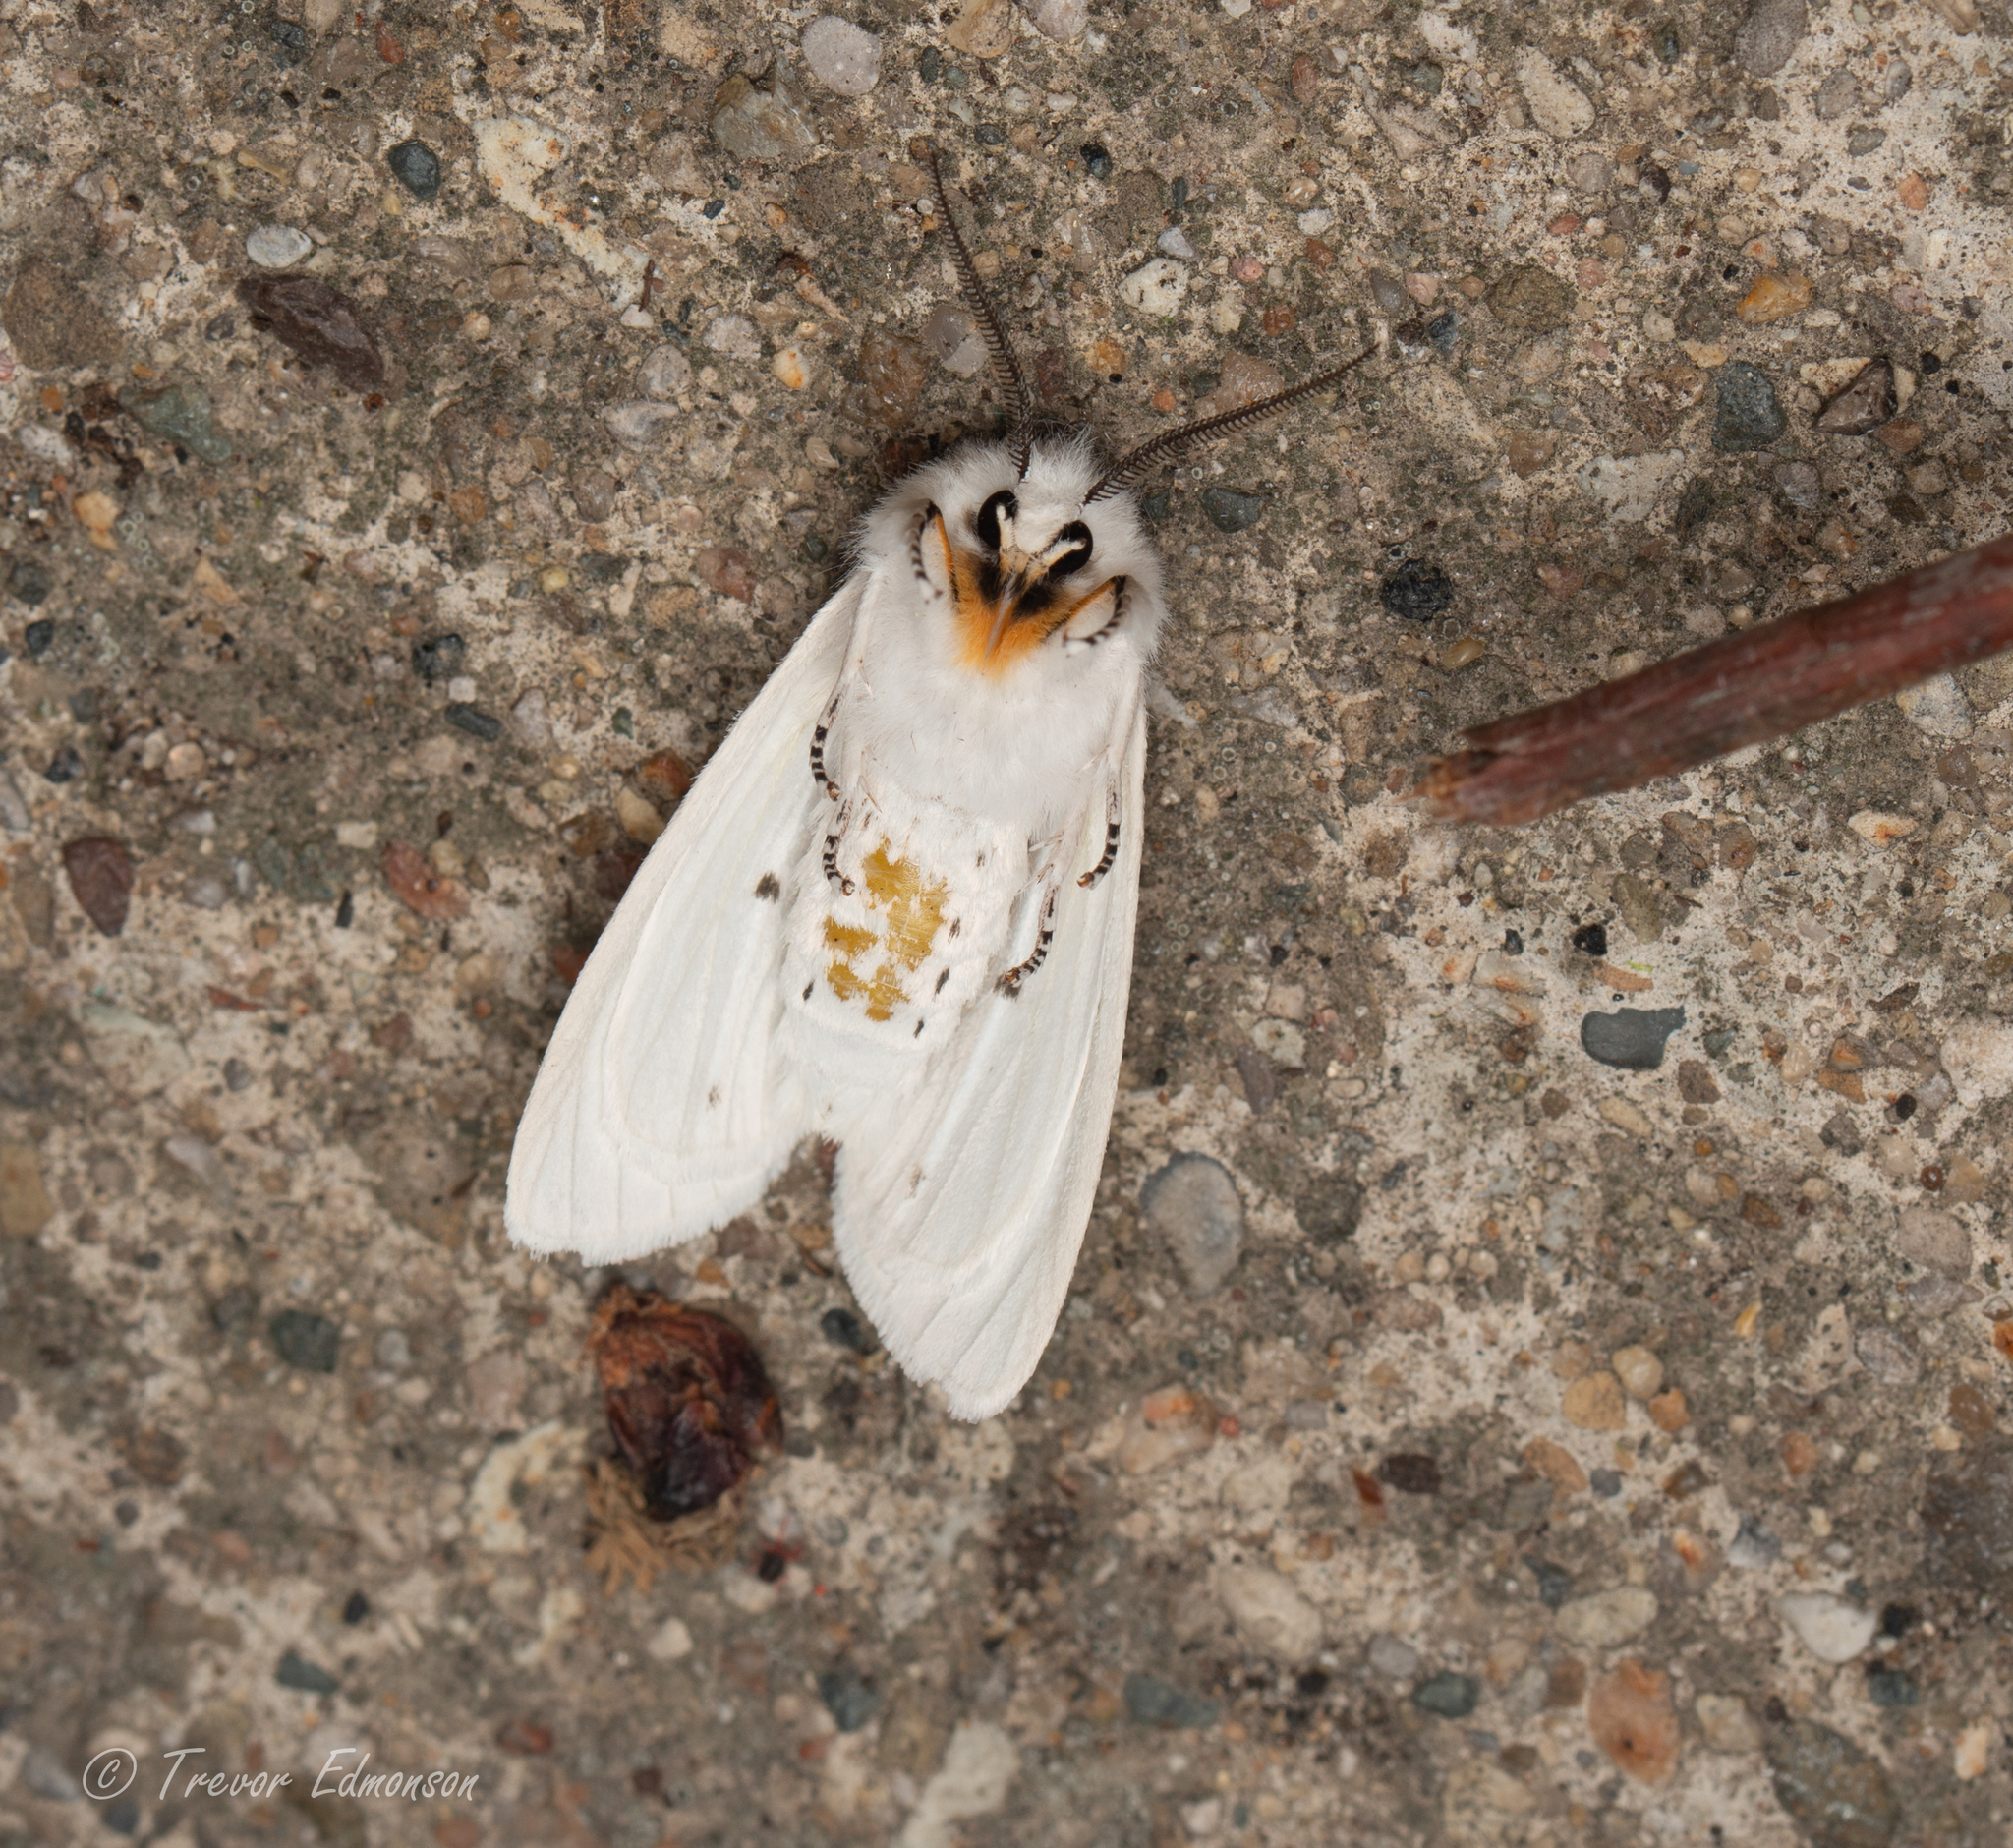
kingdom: Animalia
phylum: Arthropoda
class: Insecta
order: Lepidoptera
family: Erebidae
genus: Spilosoma
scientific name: Spilosoma virginica
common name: Virginia tiger moth
